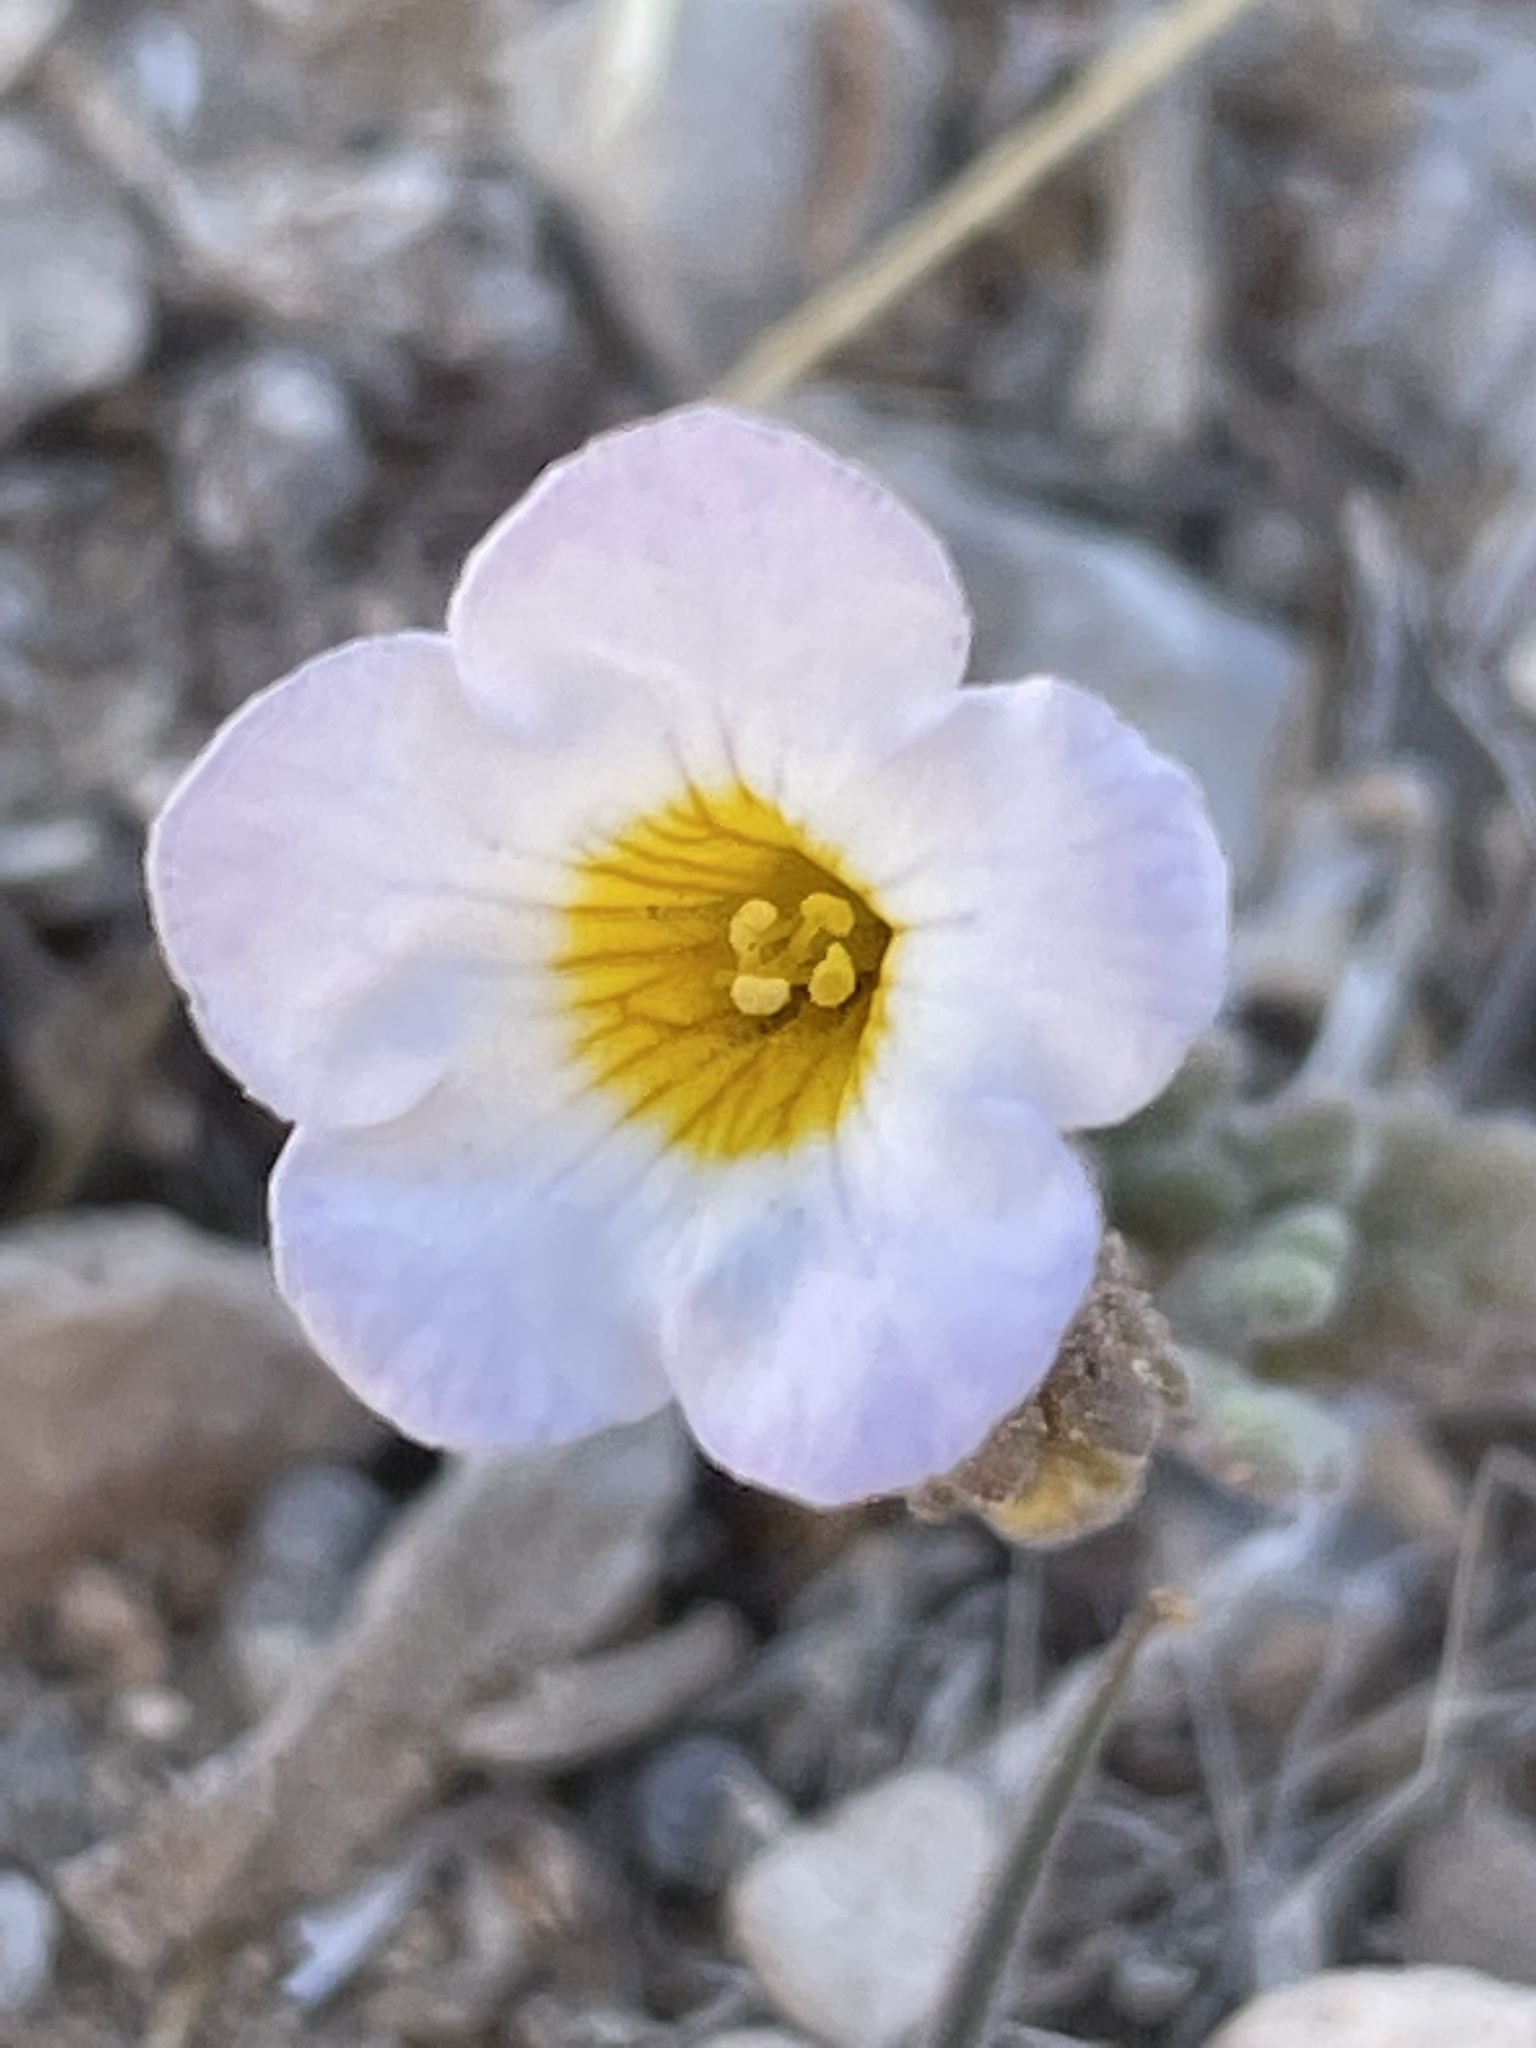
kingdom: Plantae
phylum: Tracheophyta
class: Magnoliopsida
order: Boraginales
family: Hydrophyllaceae
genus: Phacelia
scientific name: Phacelia fremontii
